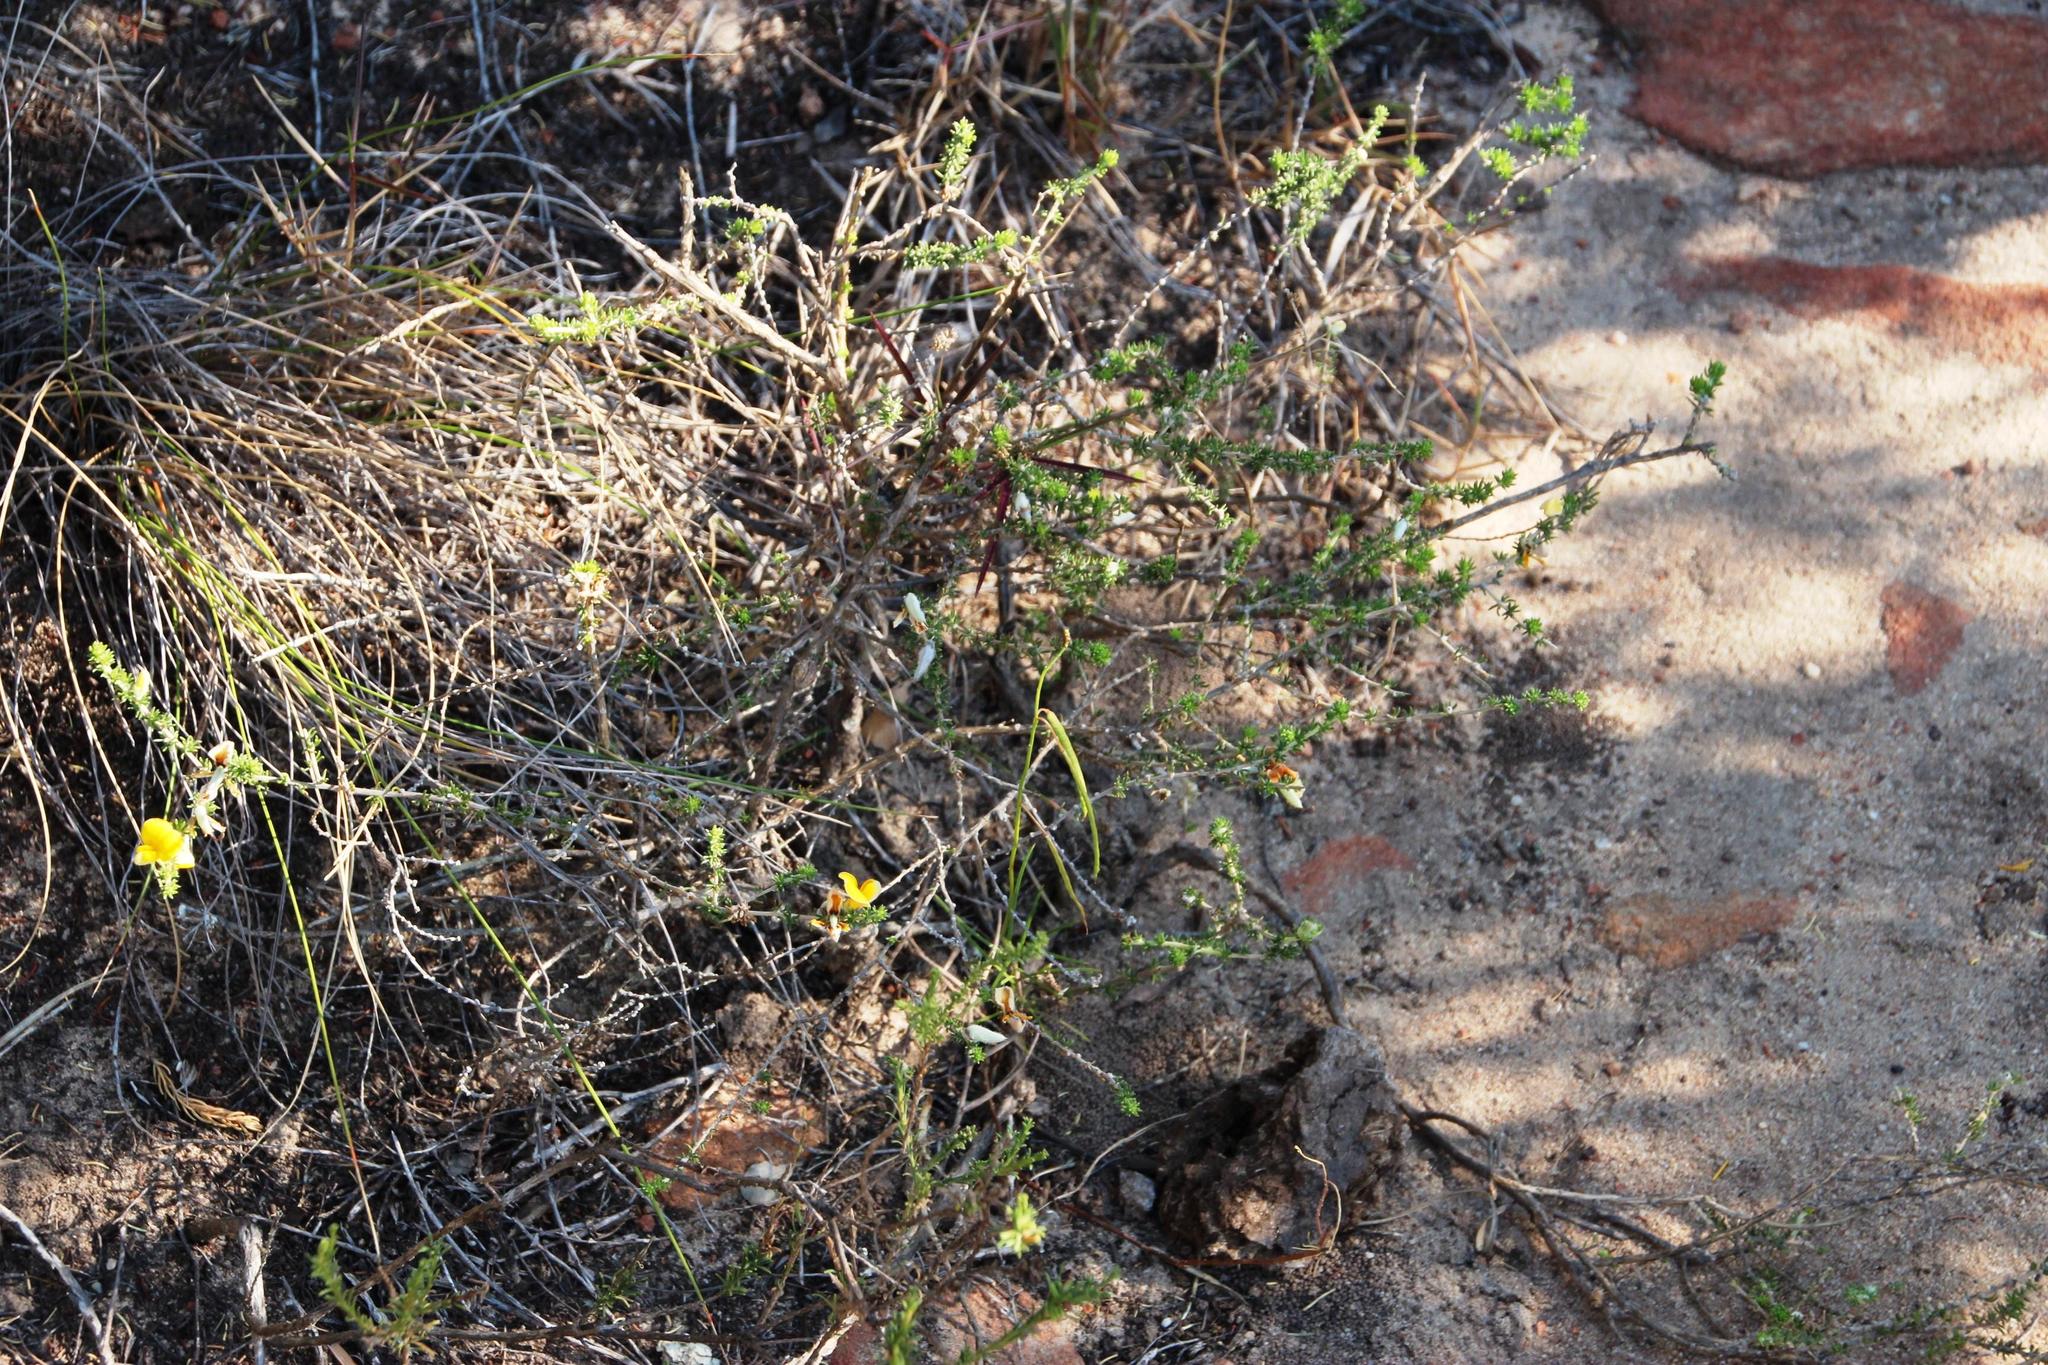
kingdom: Plantae
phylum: Tracheophyta
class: Magnoliopsida
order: Fabales
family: Fabaceae
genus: Aspalathus
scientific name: Aspalathus chortophila
